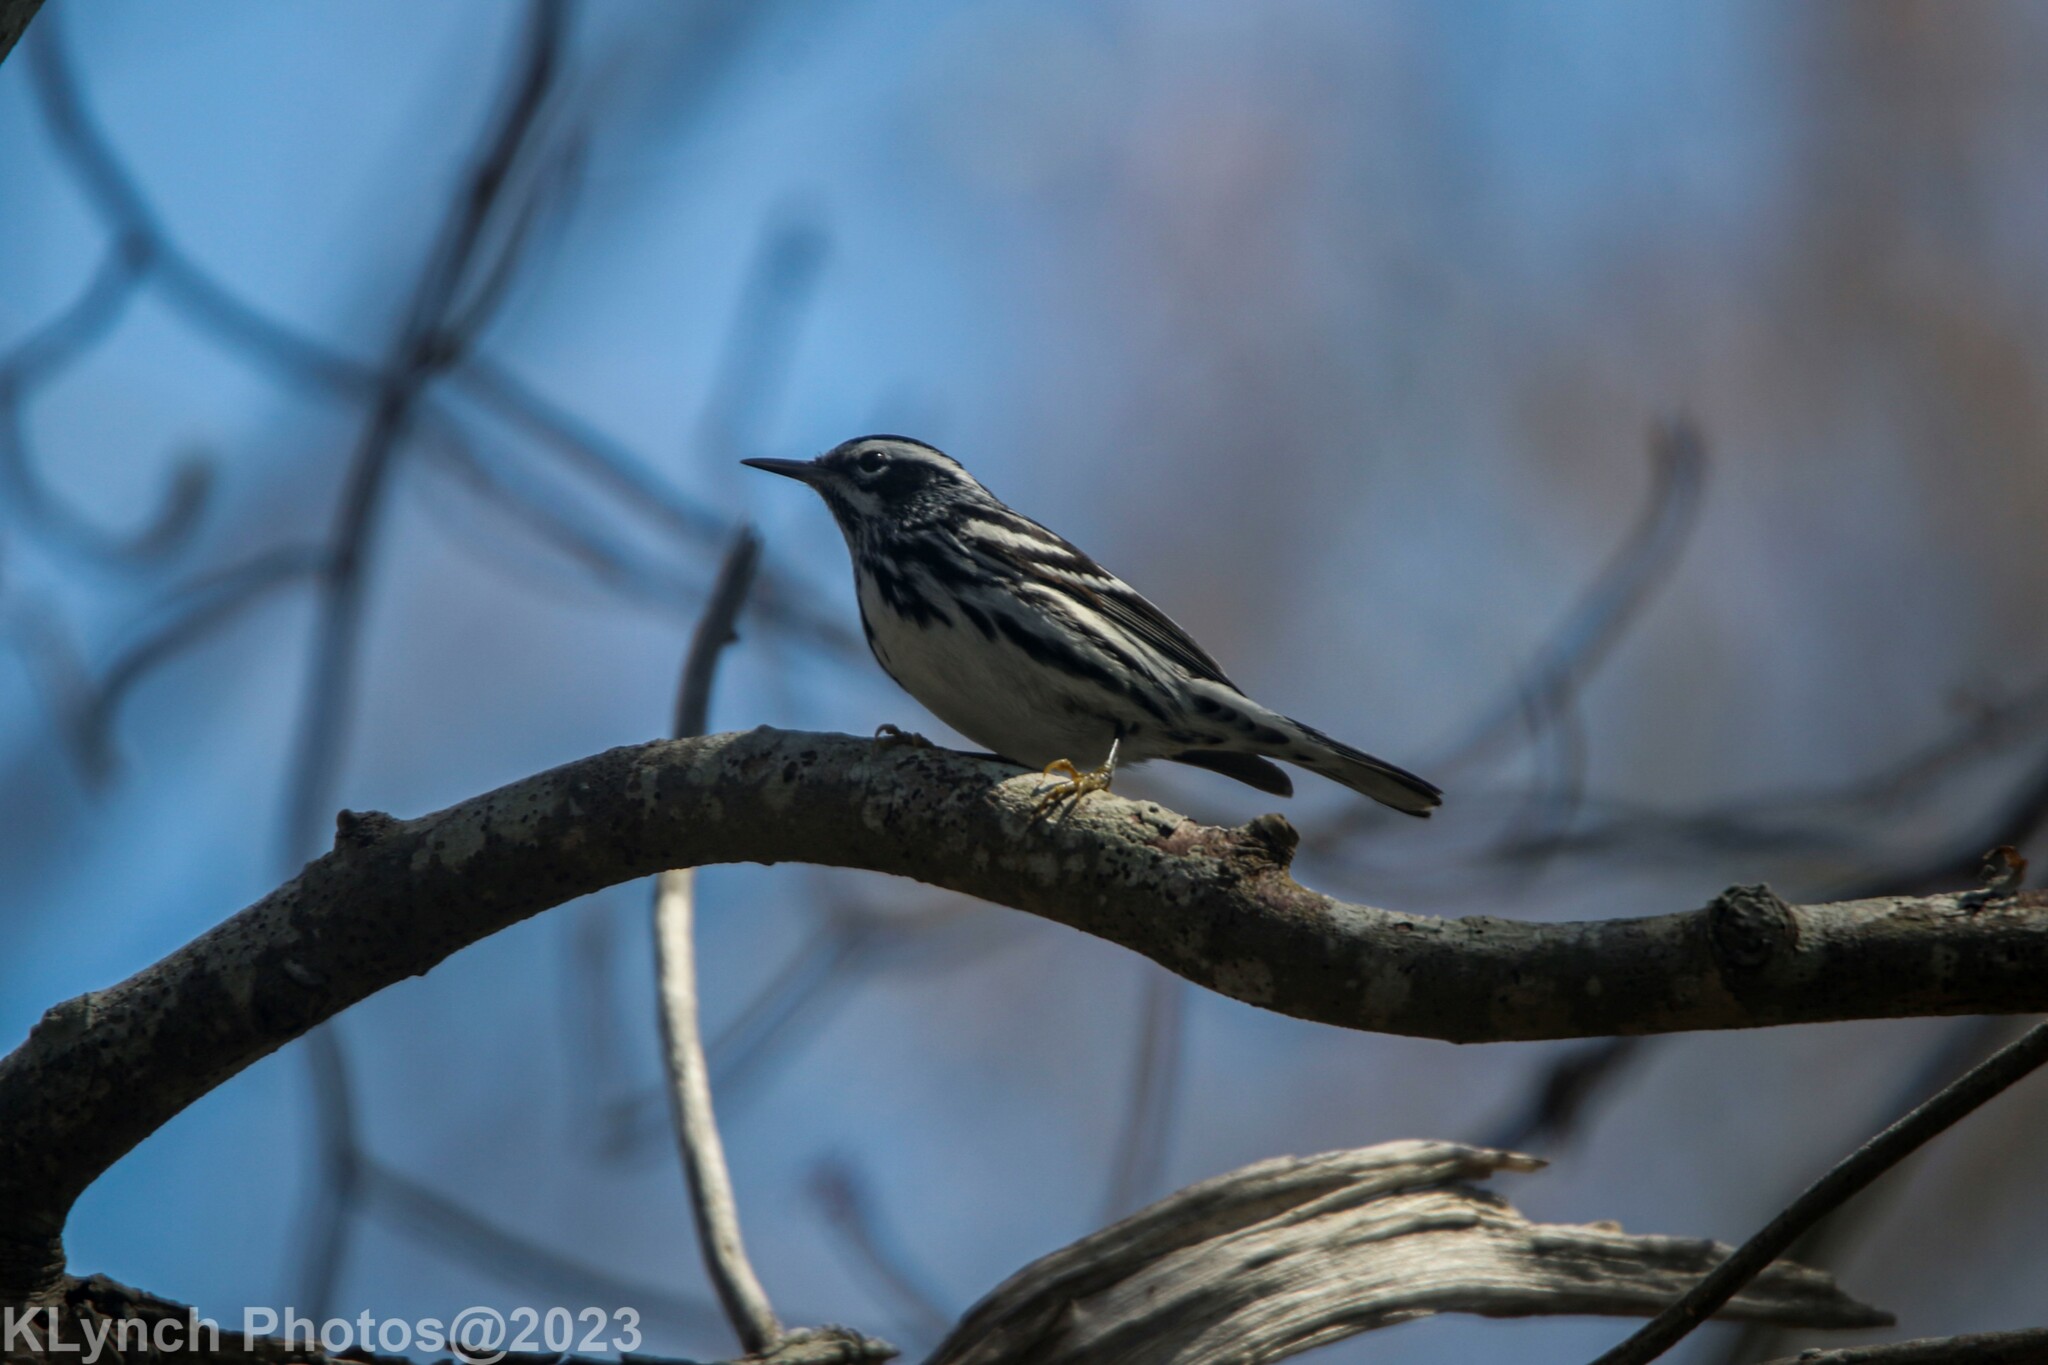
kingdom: Animalia
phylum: Chordata
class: Aves
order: Passeriformes
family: Parulidae
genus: Mniotilta
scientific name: Mniotilta varia
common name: Black-and-white warbler
